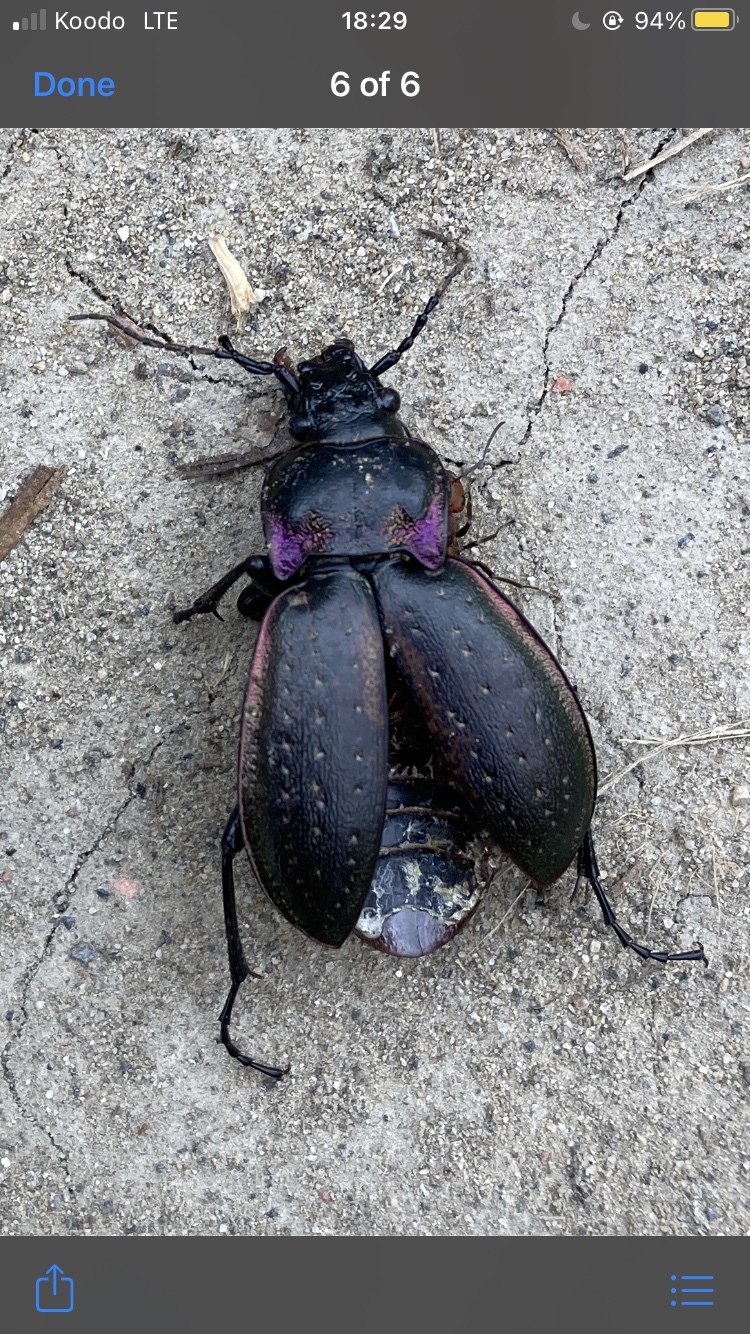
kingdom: Animalia
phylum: Arthropoda
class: Insecta
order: Coleoptera
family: Carabidae
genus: Carabus
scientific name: Carabus nemoralis
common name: European ground beetle
